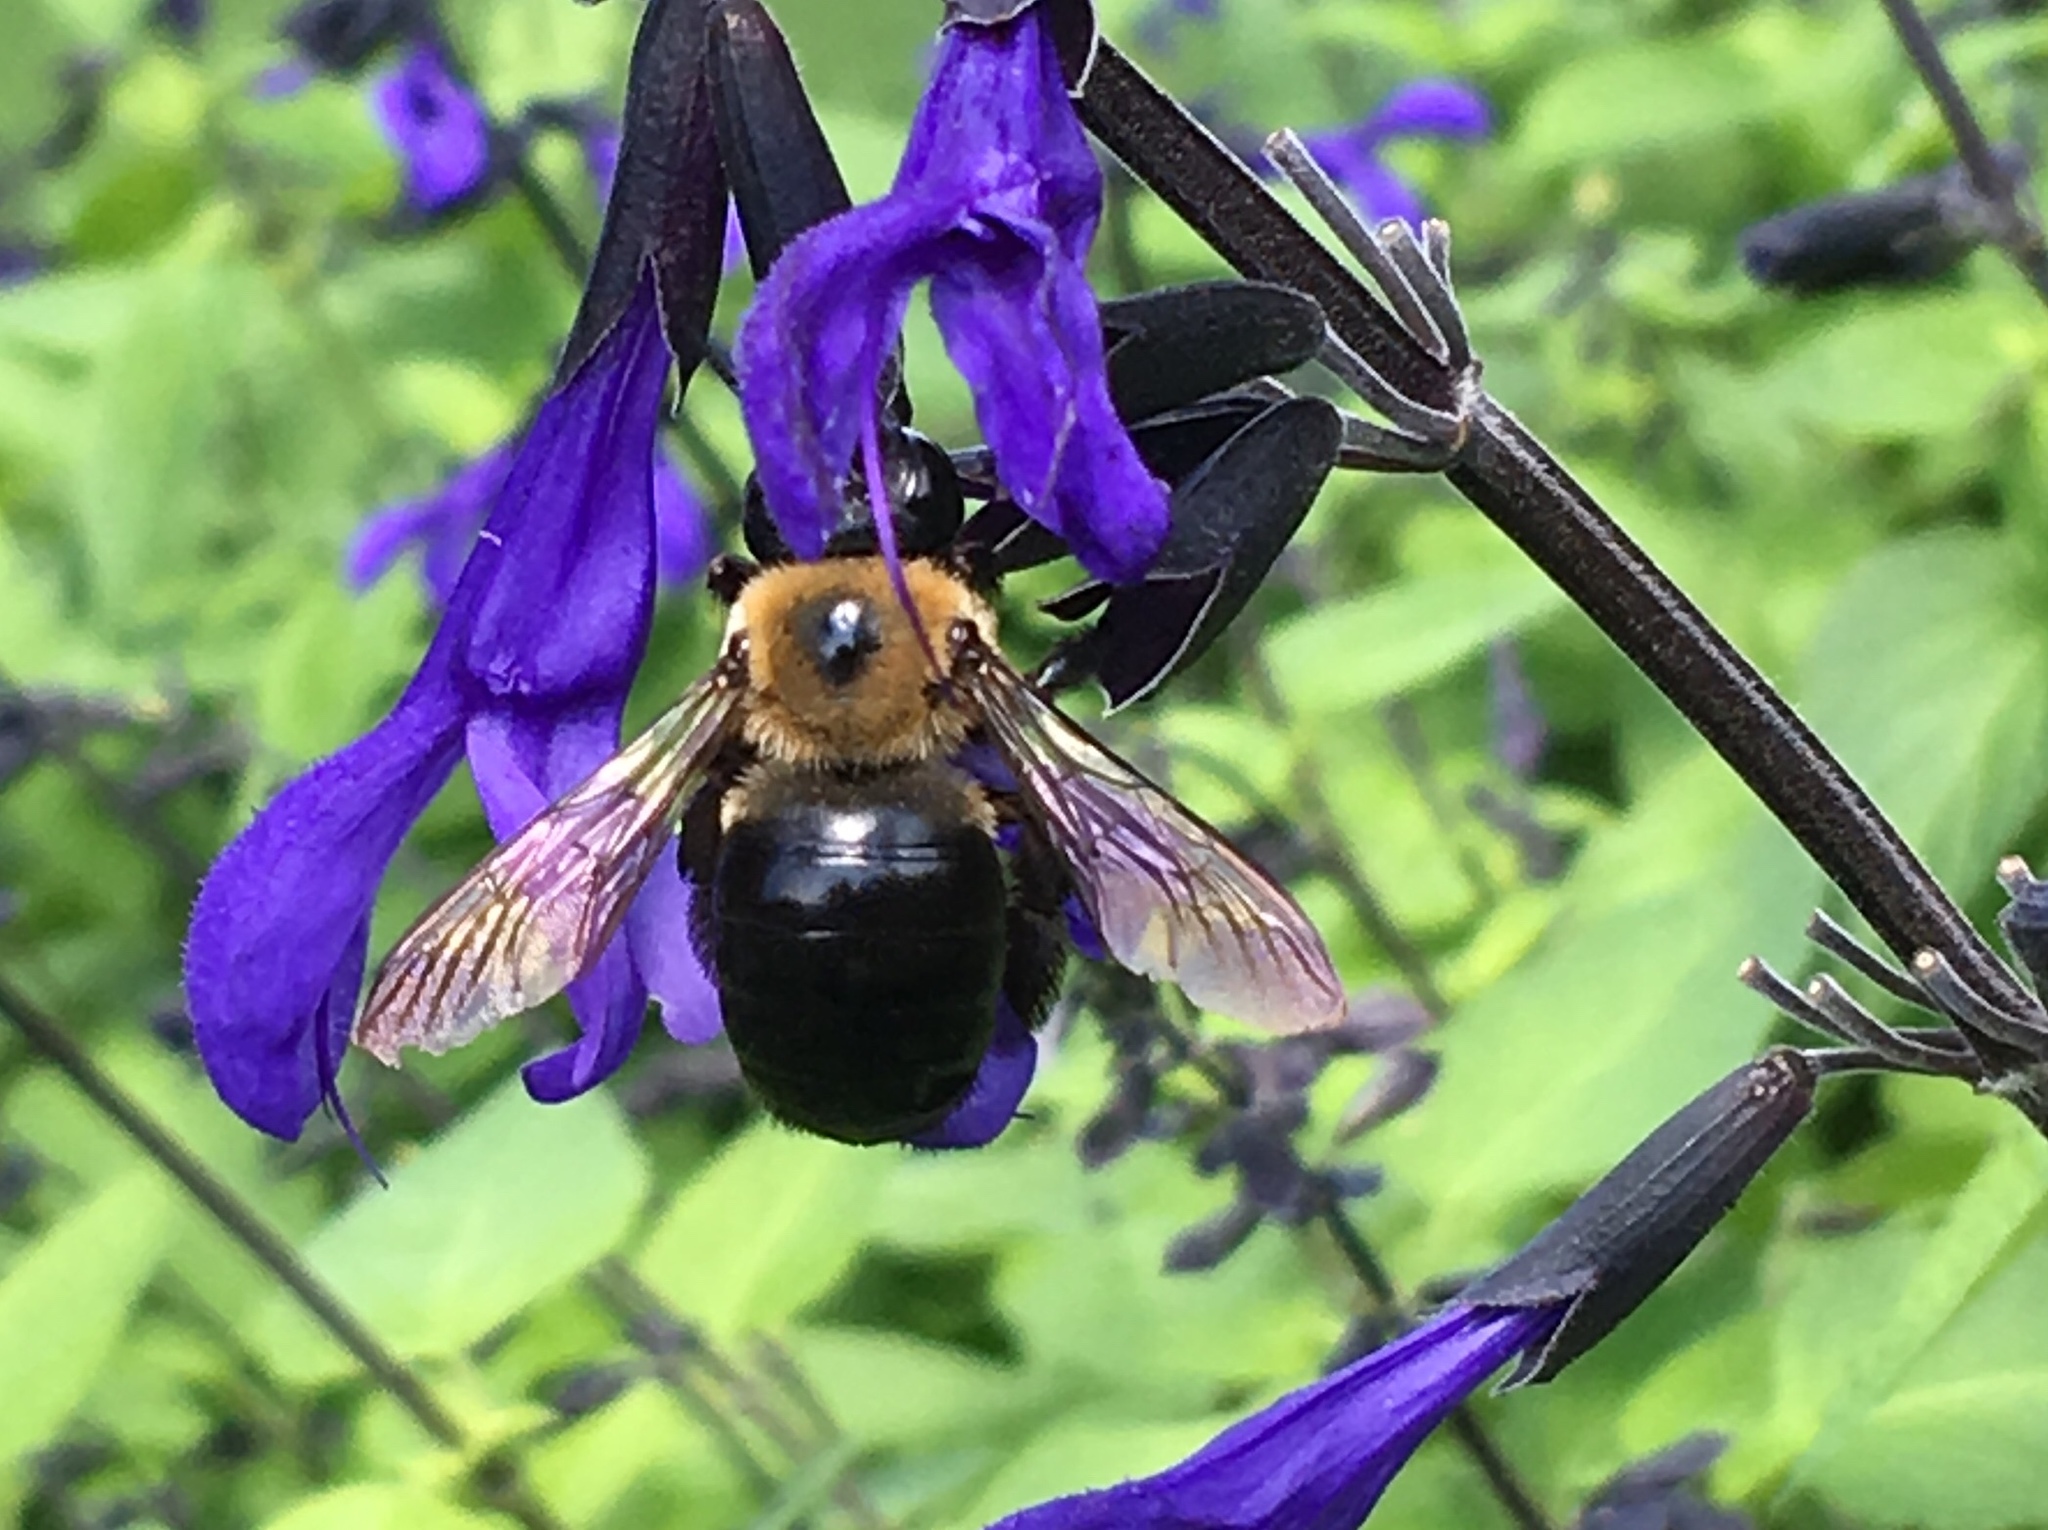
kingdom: Animalia
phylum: Arthropoda
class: Insecta
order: Hymenoptera
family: Apidae
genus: Xylocopa
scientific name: Xylocopa virginica
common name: Carpenter bee
